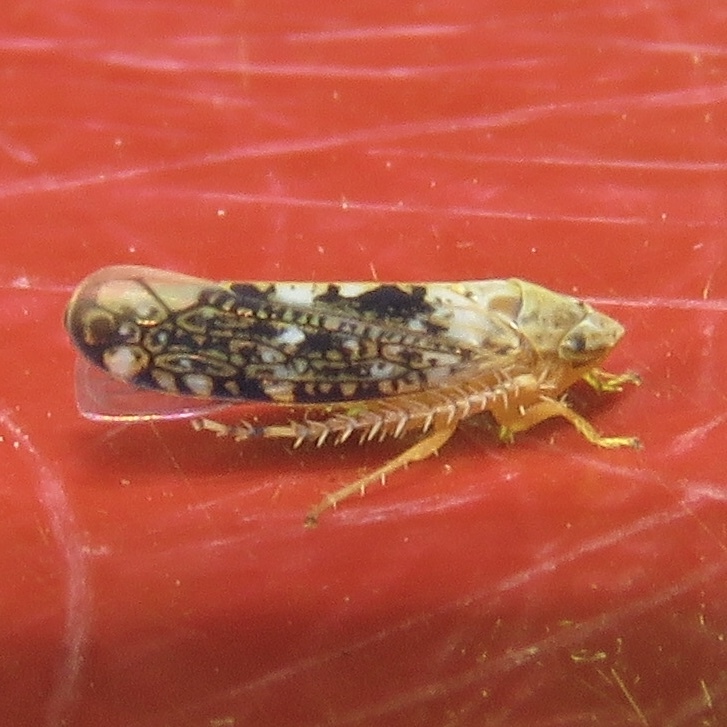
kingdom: Animalia
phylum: Arthropoda
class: Insecta
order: Hemiptera
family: Cicadellidae
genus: Prescottia
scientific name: Prescottia lobata
